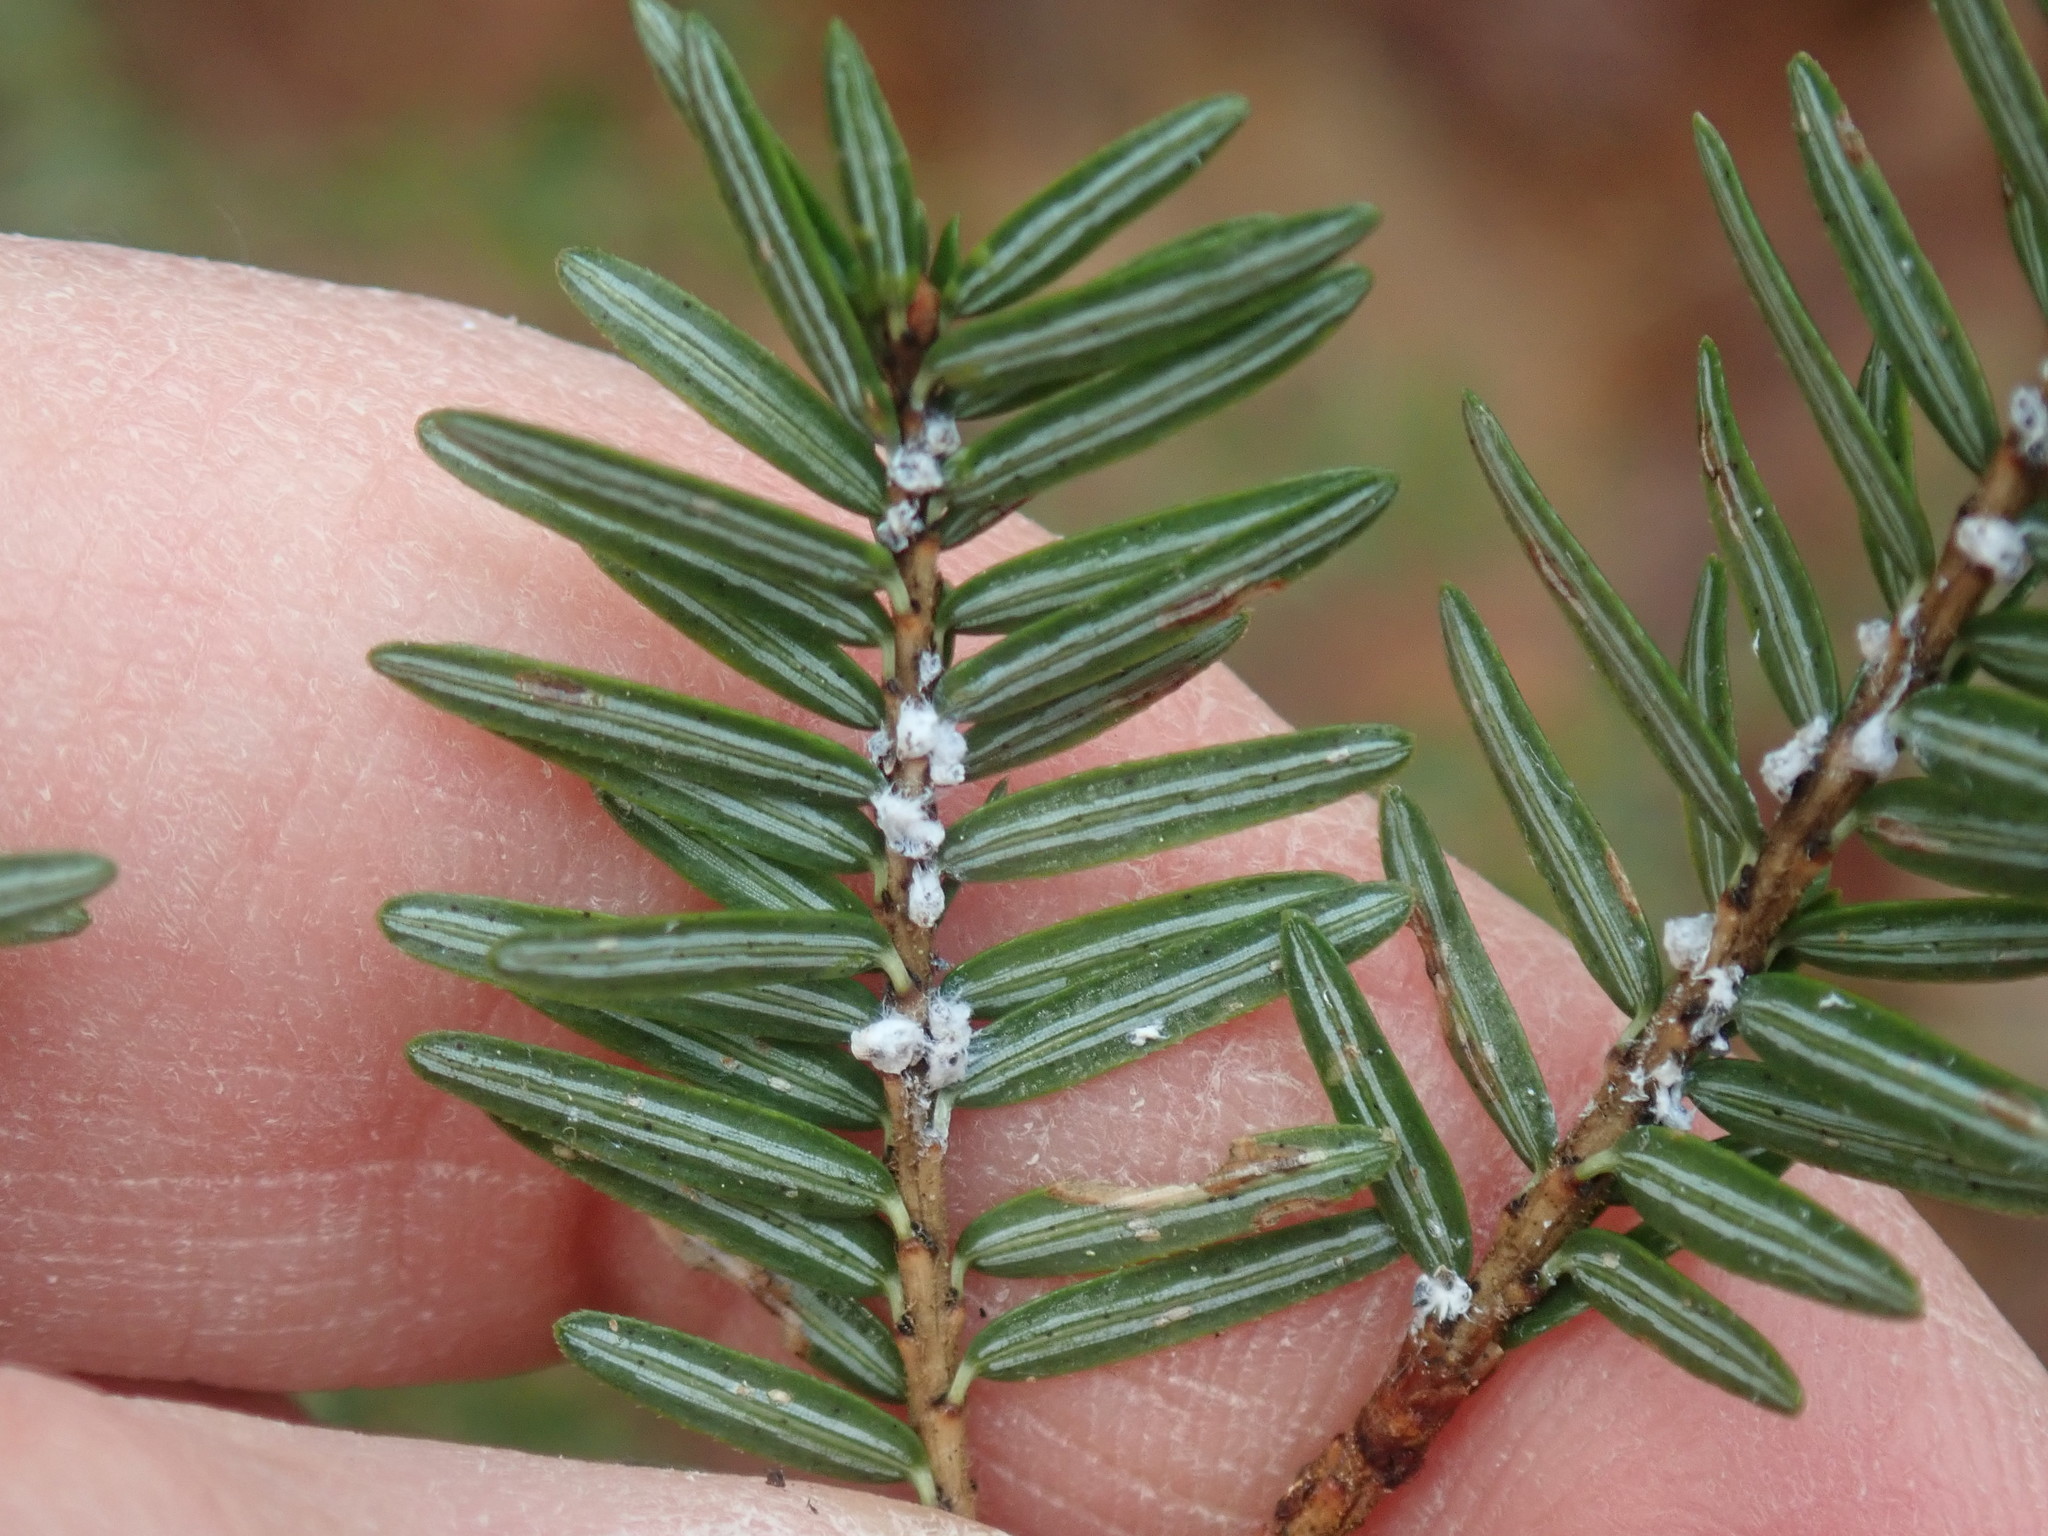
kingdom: Animalia
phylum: Arthropoda
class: Insecta
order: Hemiptera
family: Adelgidae
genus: Adelges
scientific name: Adelges tsugae
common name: Hemlock woolly adelgid
